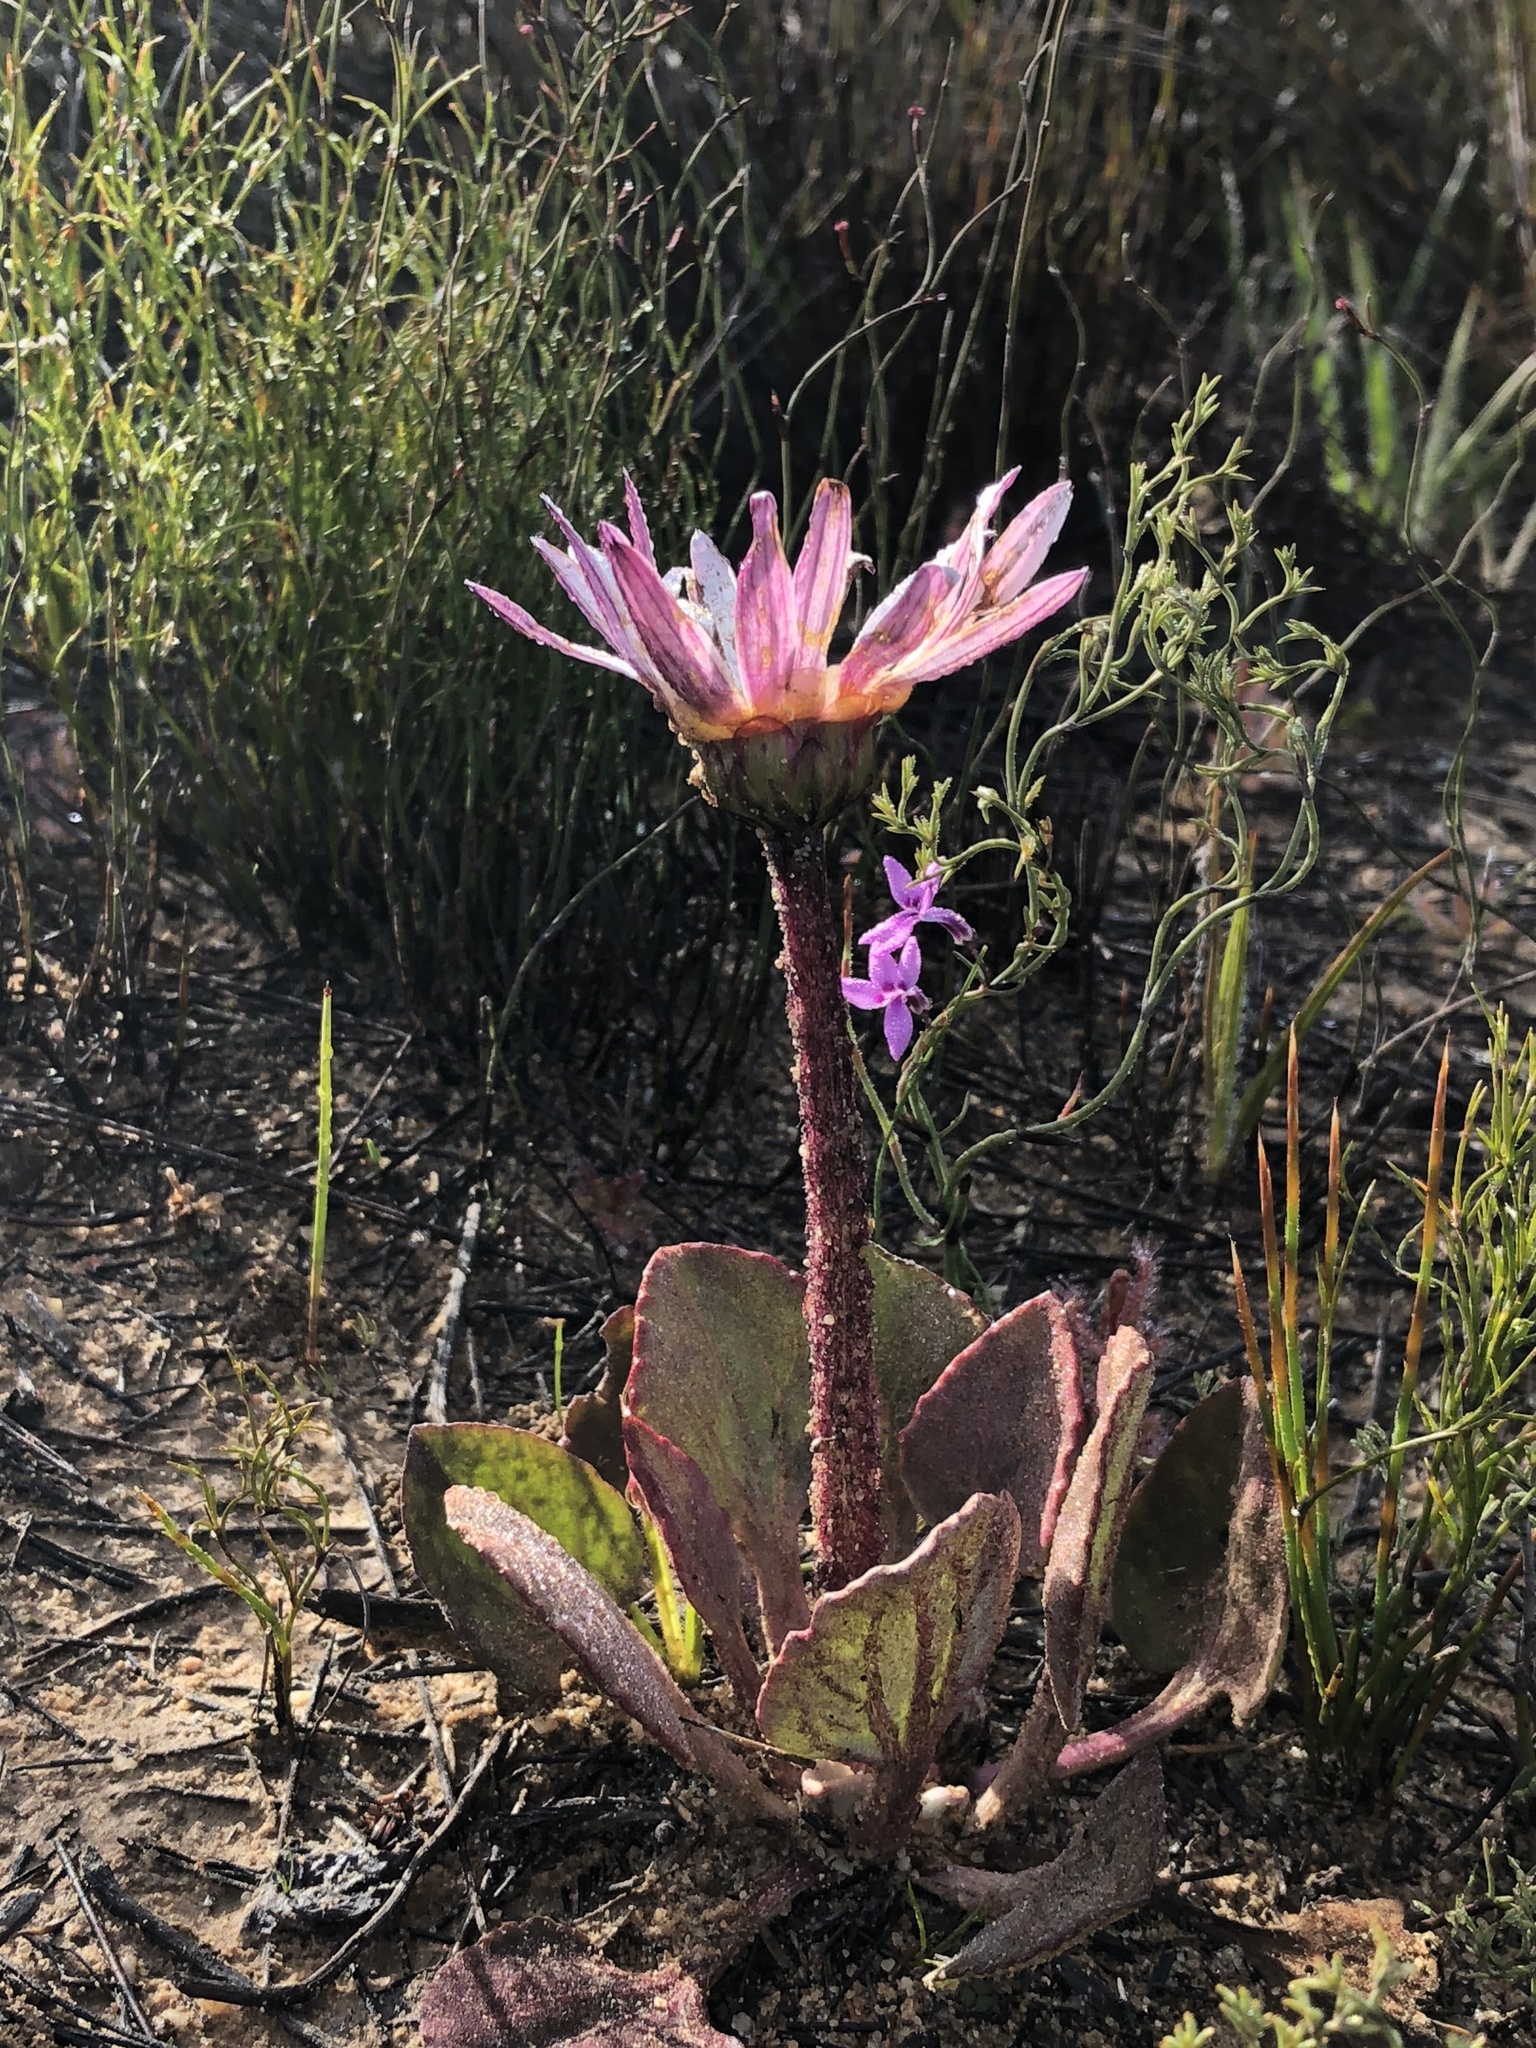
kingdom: Plantae
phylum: Tracheophyta
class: Magnoliopsida
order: Asterales
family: Asteraceae
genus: Arctotis
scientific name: Arctotis verbascifolia
